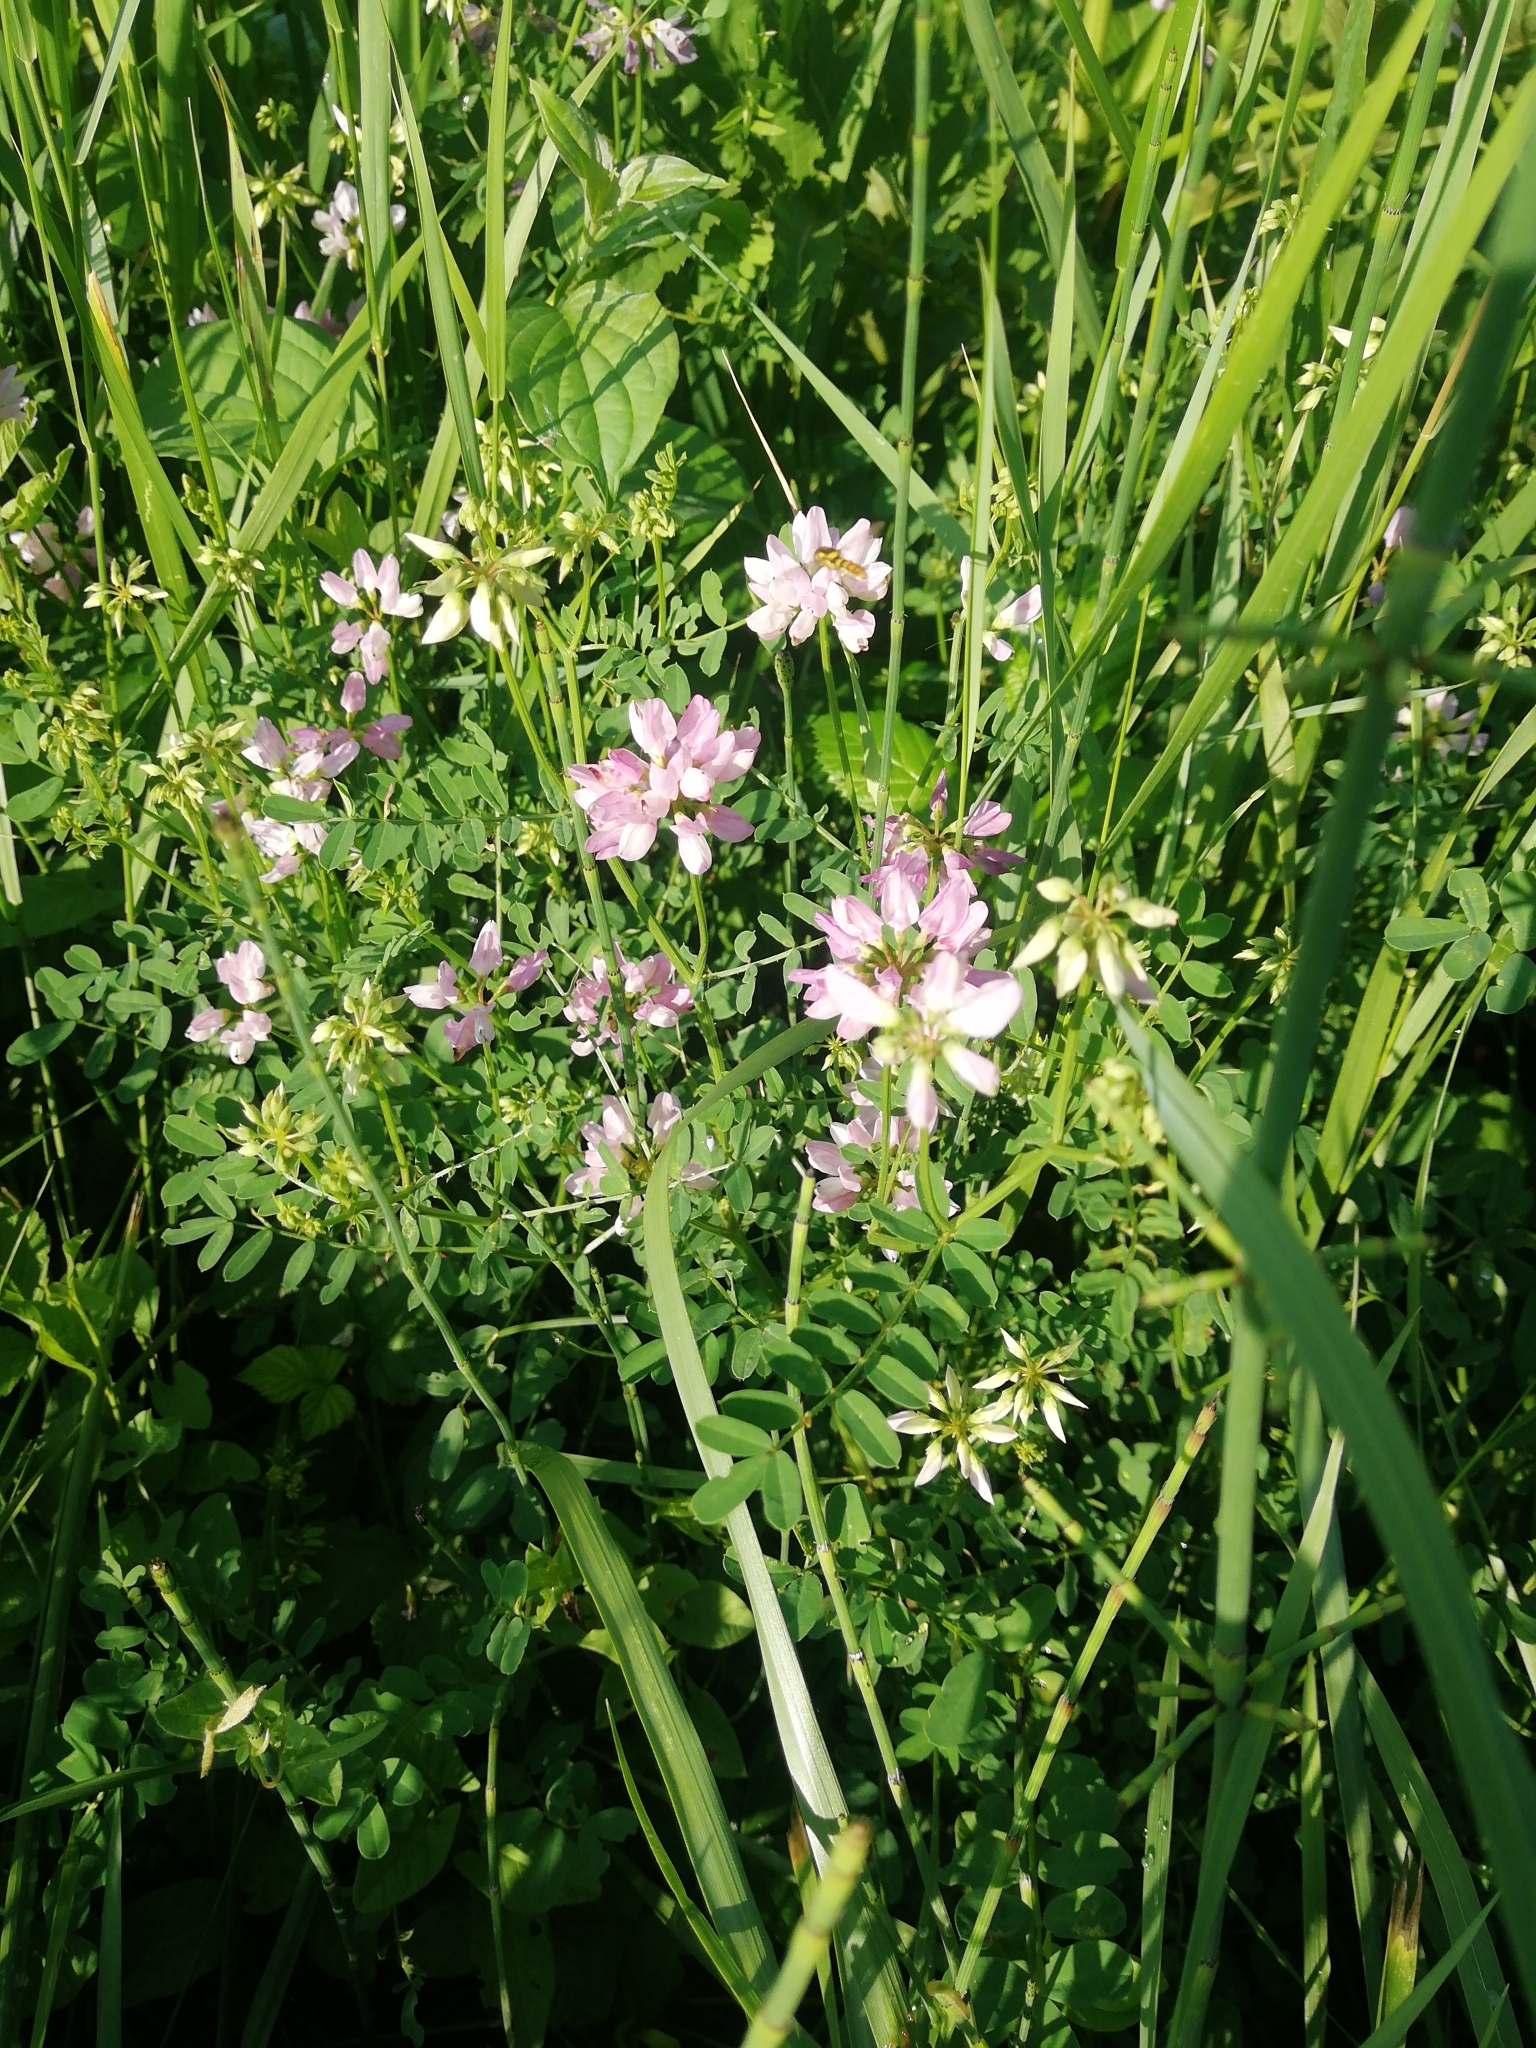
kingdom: Plantae
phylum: Tracheophyta
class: Magnoliopsida
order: Fabales
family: Fabaceae
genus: Coronilla
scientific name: Coronilla varia
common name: Crownvetch
